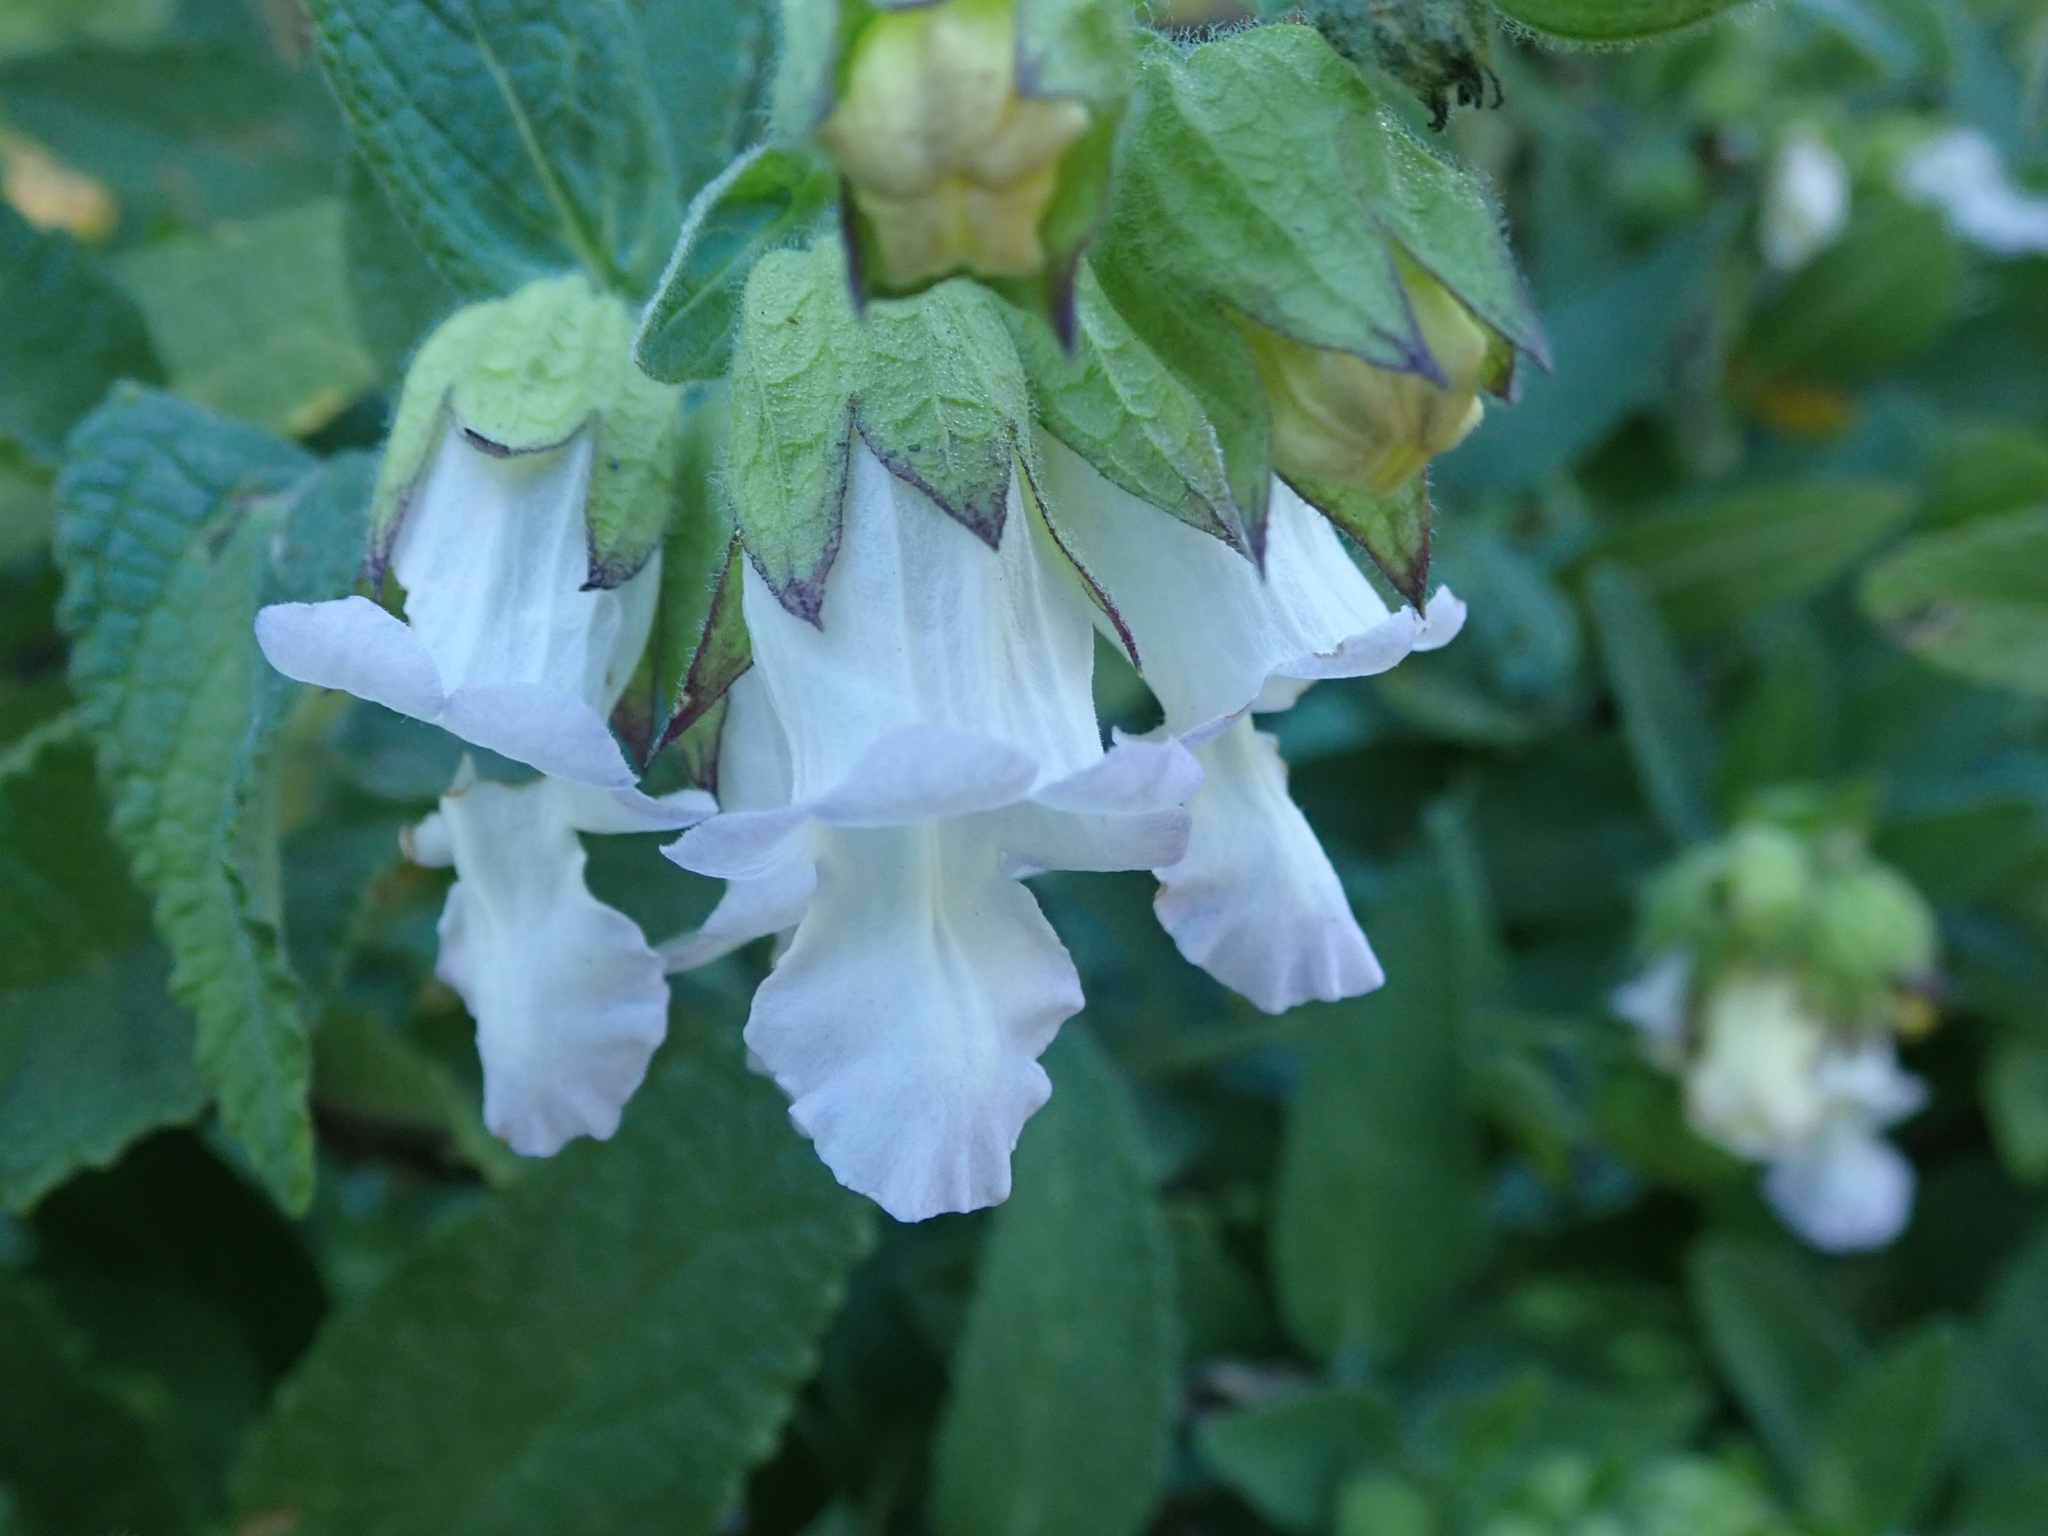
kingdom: Plantae
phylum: Tracheophyta
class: Magnoliopsida
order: Lamiales
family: Lamiaceae
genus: Lepechinia
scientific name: Lepechinia calycina
